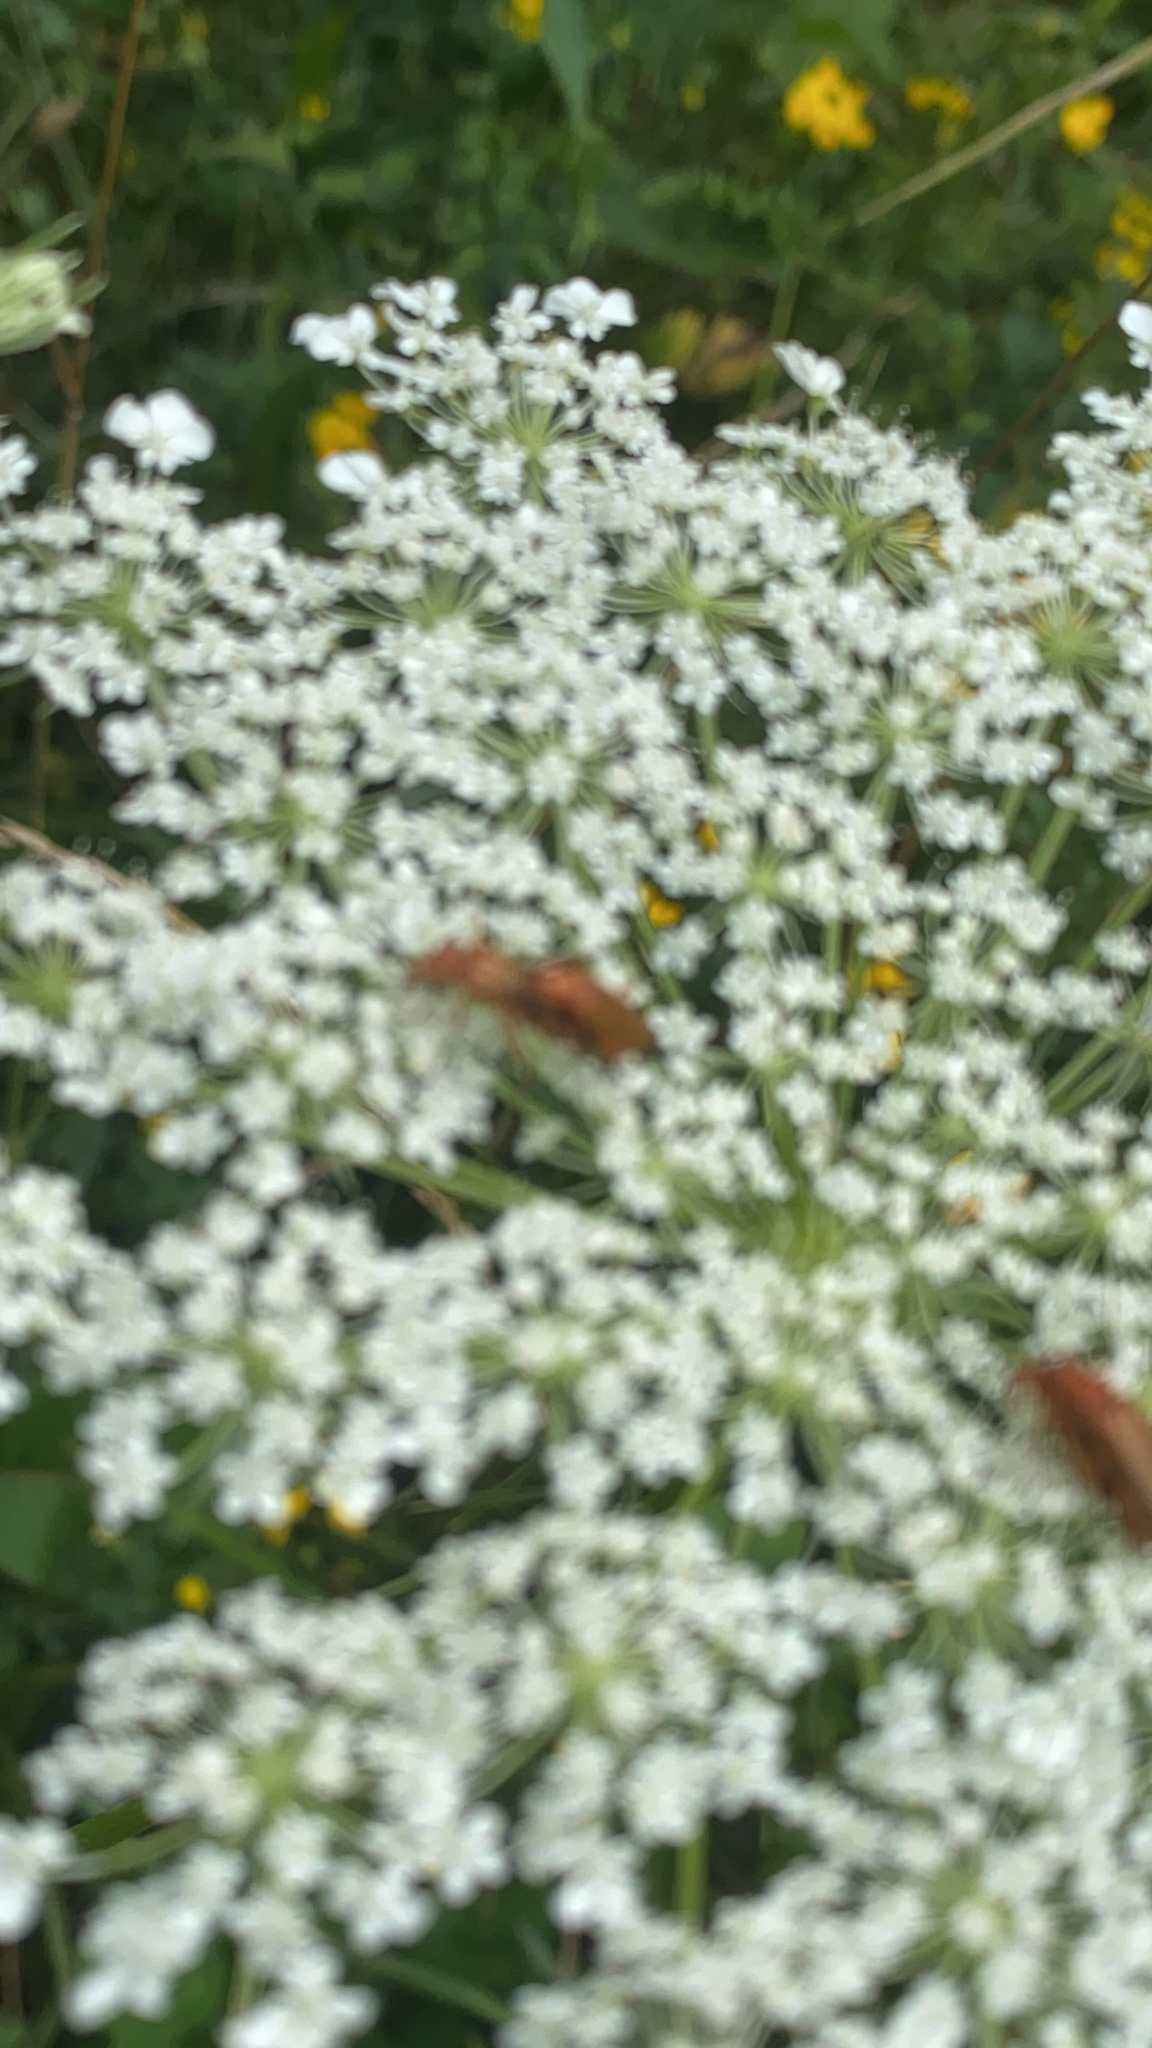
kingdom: Animalia
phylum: Arthropoda
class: Insecta
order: Coleoptera
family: Cantharidae
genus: Rhagonycha
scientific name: Rhagonycha fulva
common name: Common red soldier beetle
